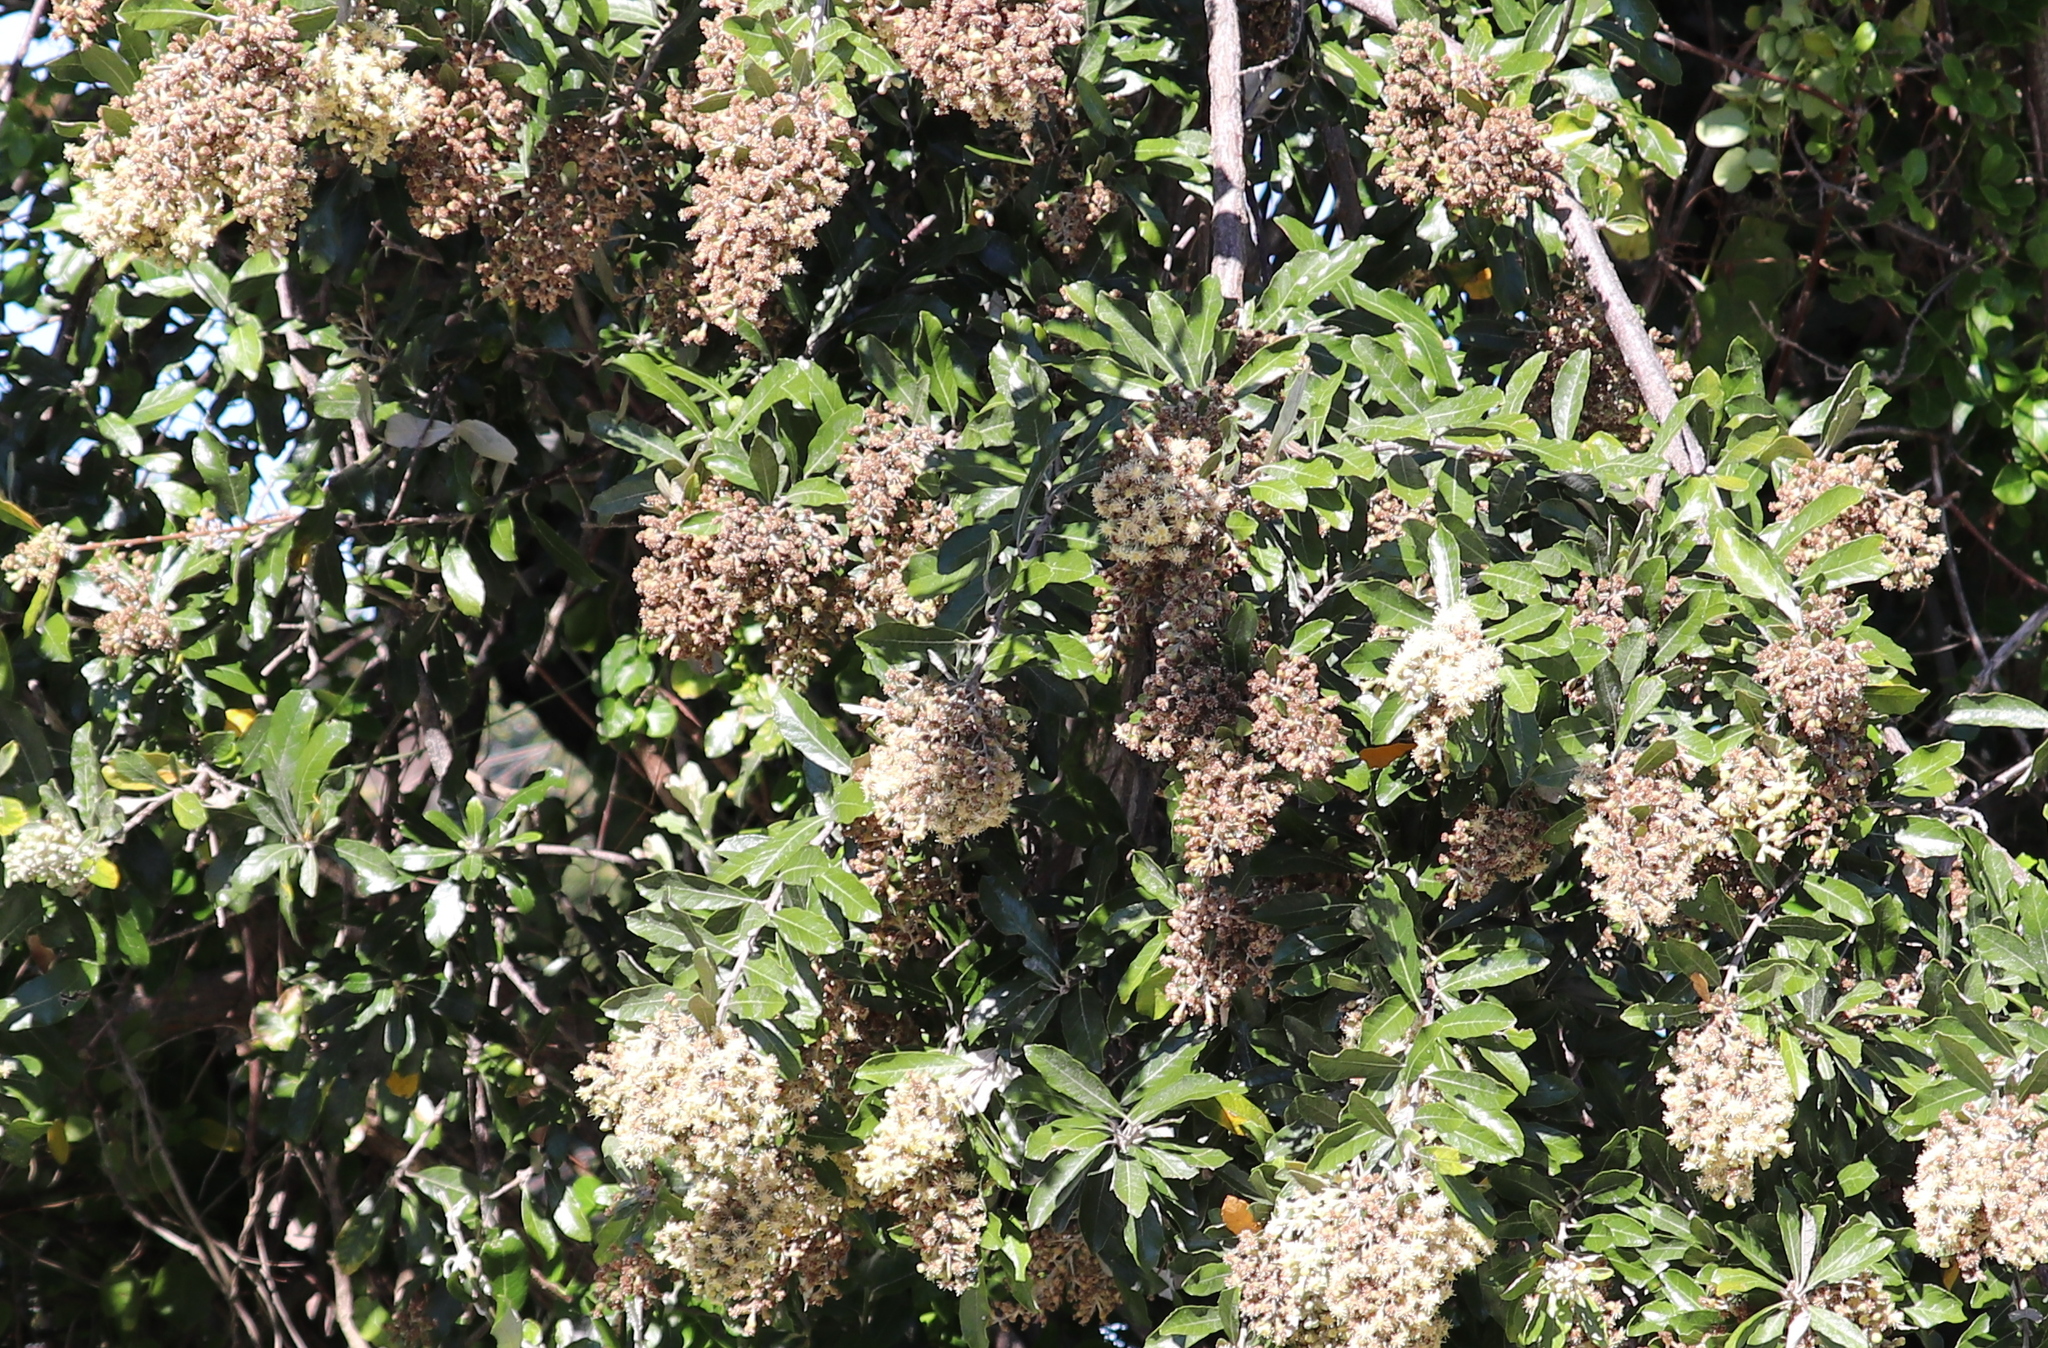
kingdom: Plantae
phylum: Tracheophyta
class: Magnoliopsida
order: Asterales
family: Asteraceae
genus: Brachylaena
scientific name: Brachylaena discolor
